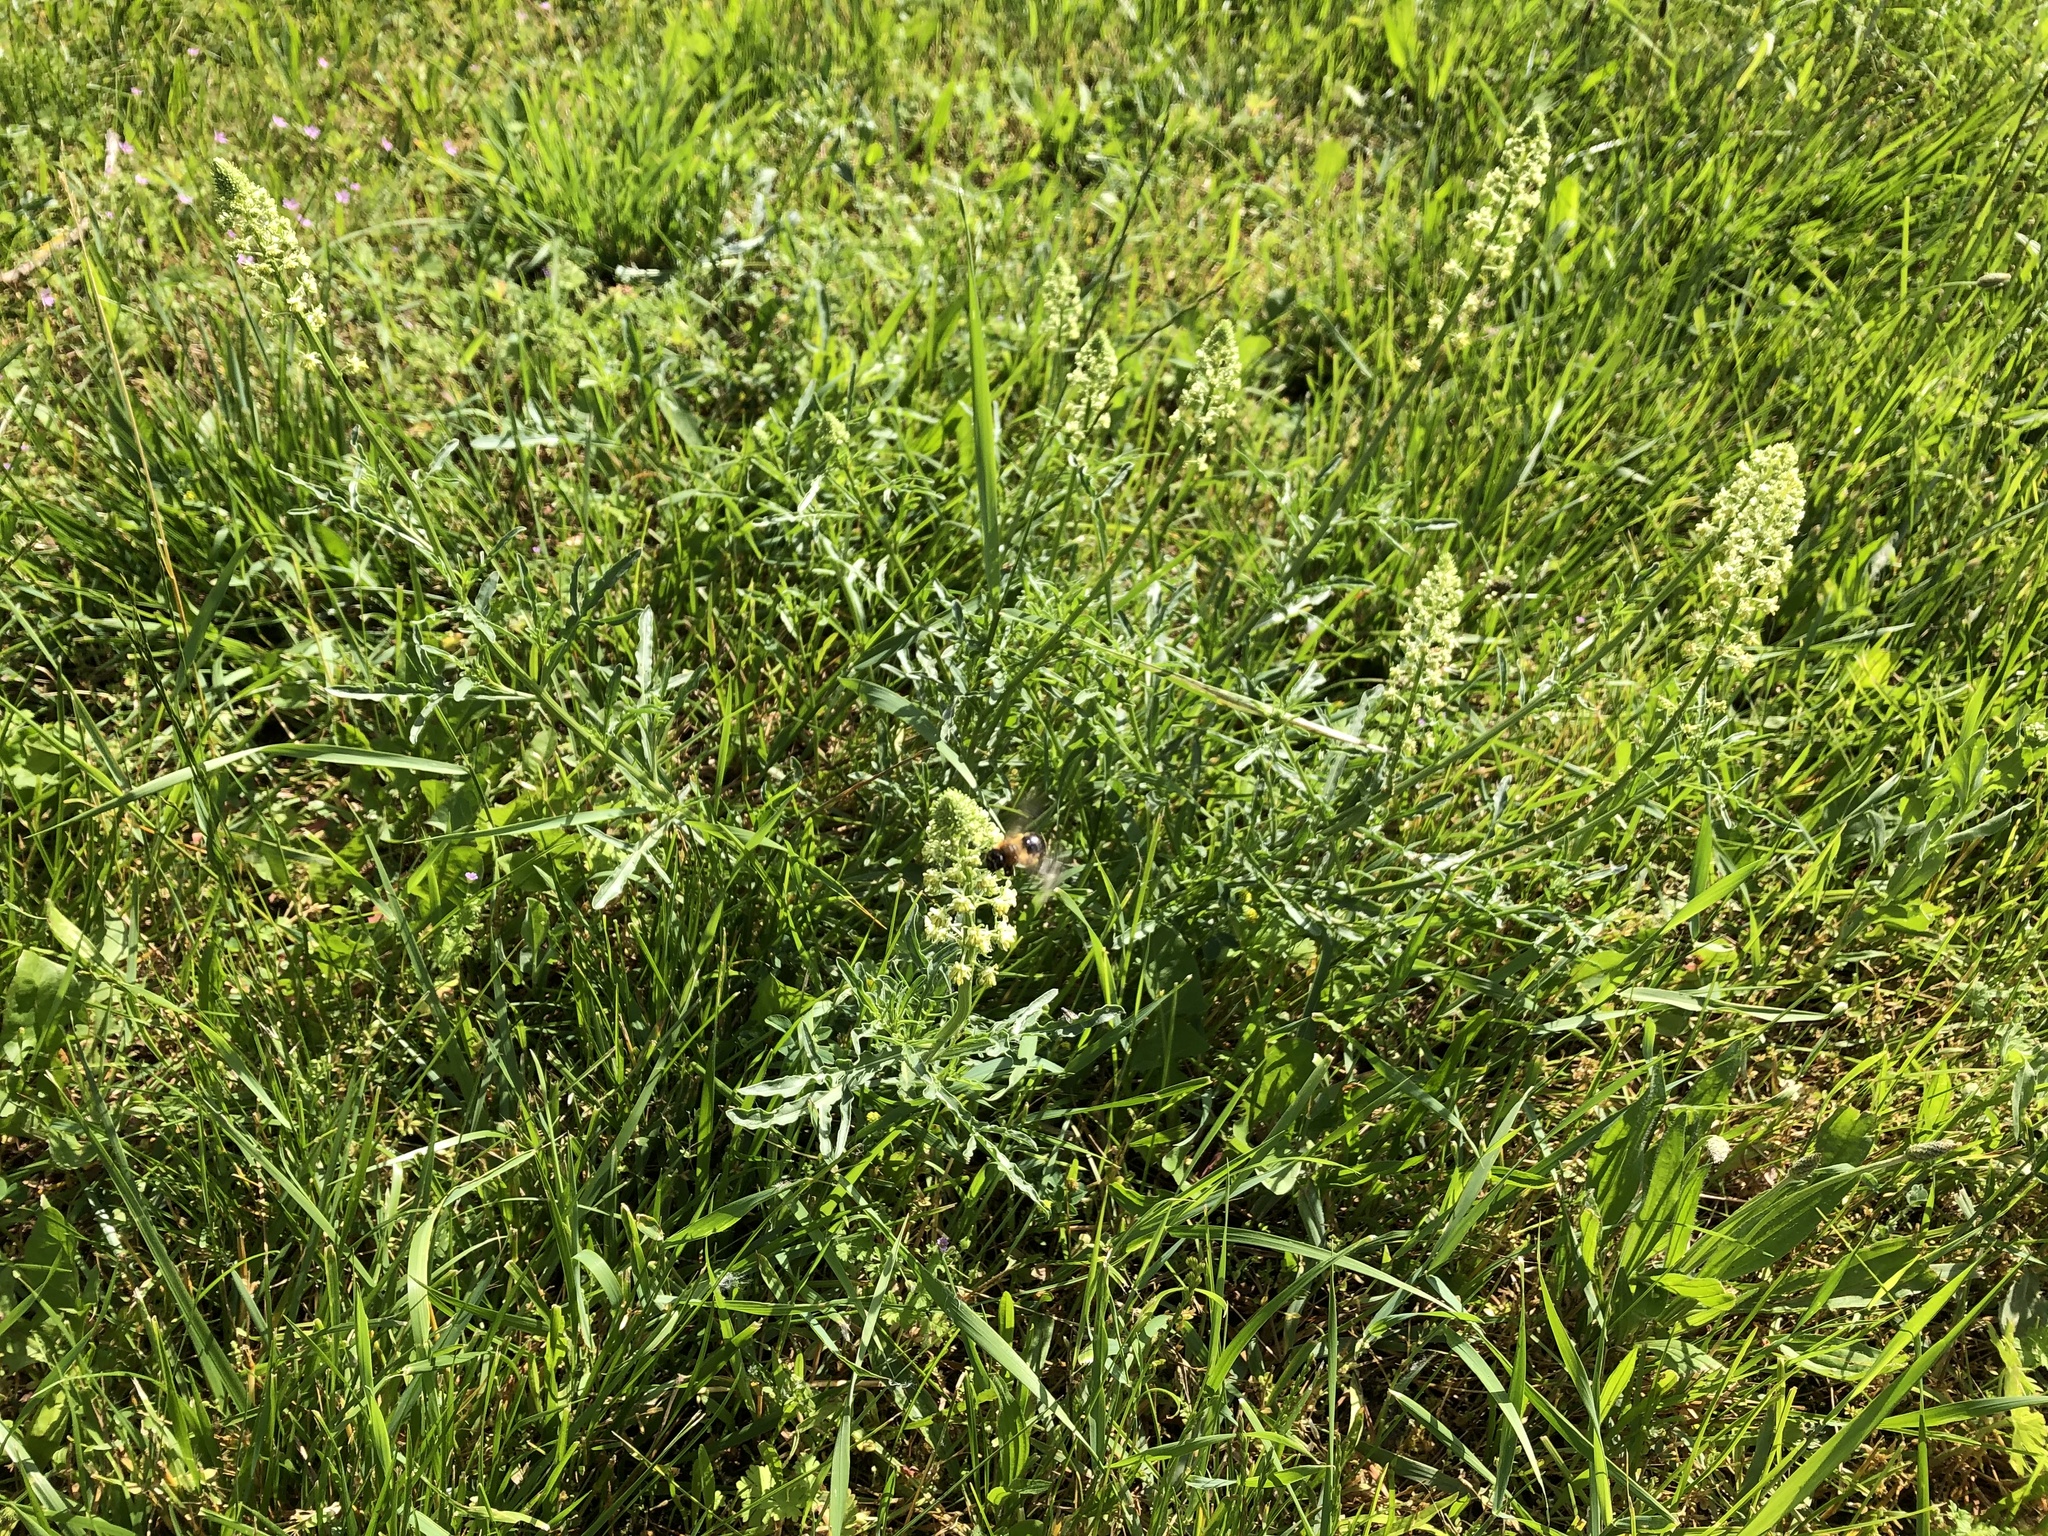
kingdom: Plantae
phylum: Tracheophyta
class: Magnoliopsida
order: Brassicales
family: Resedaceae
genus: Reseda
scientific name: Reseda lutea
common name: Wild mignonette
